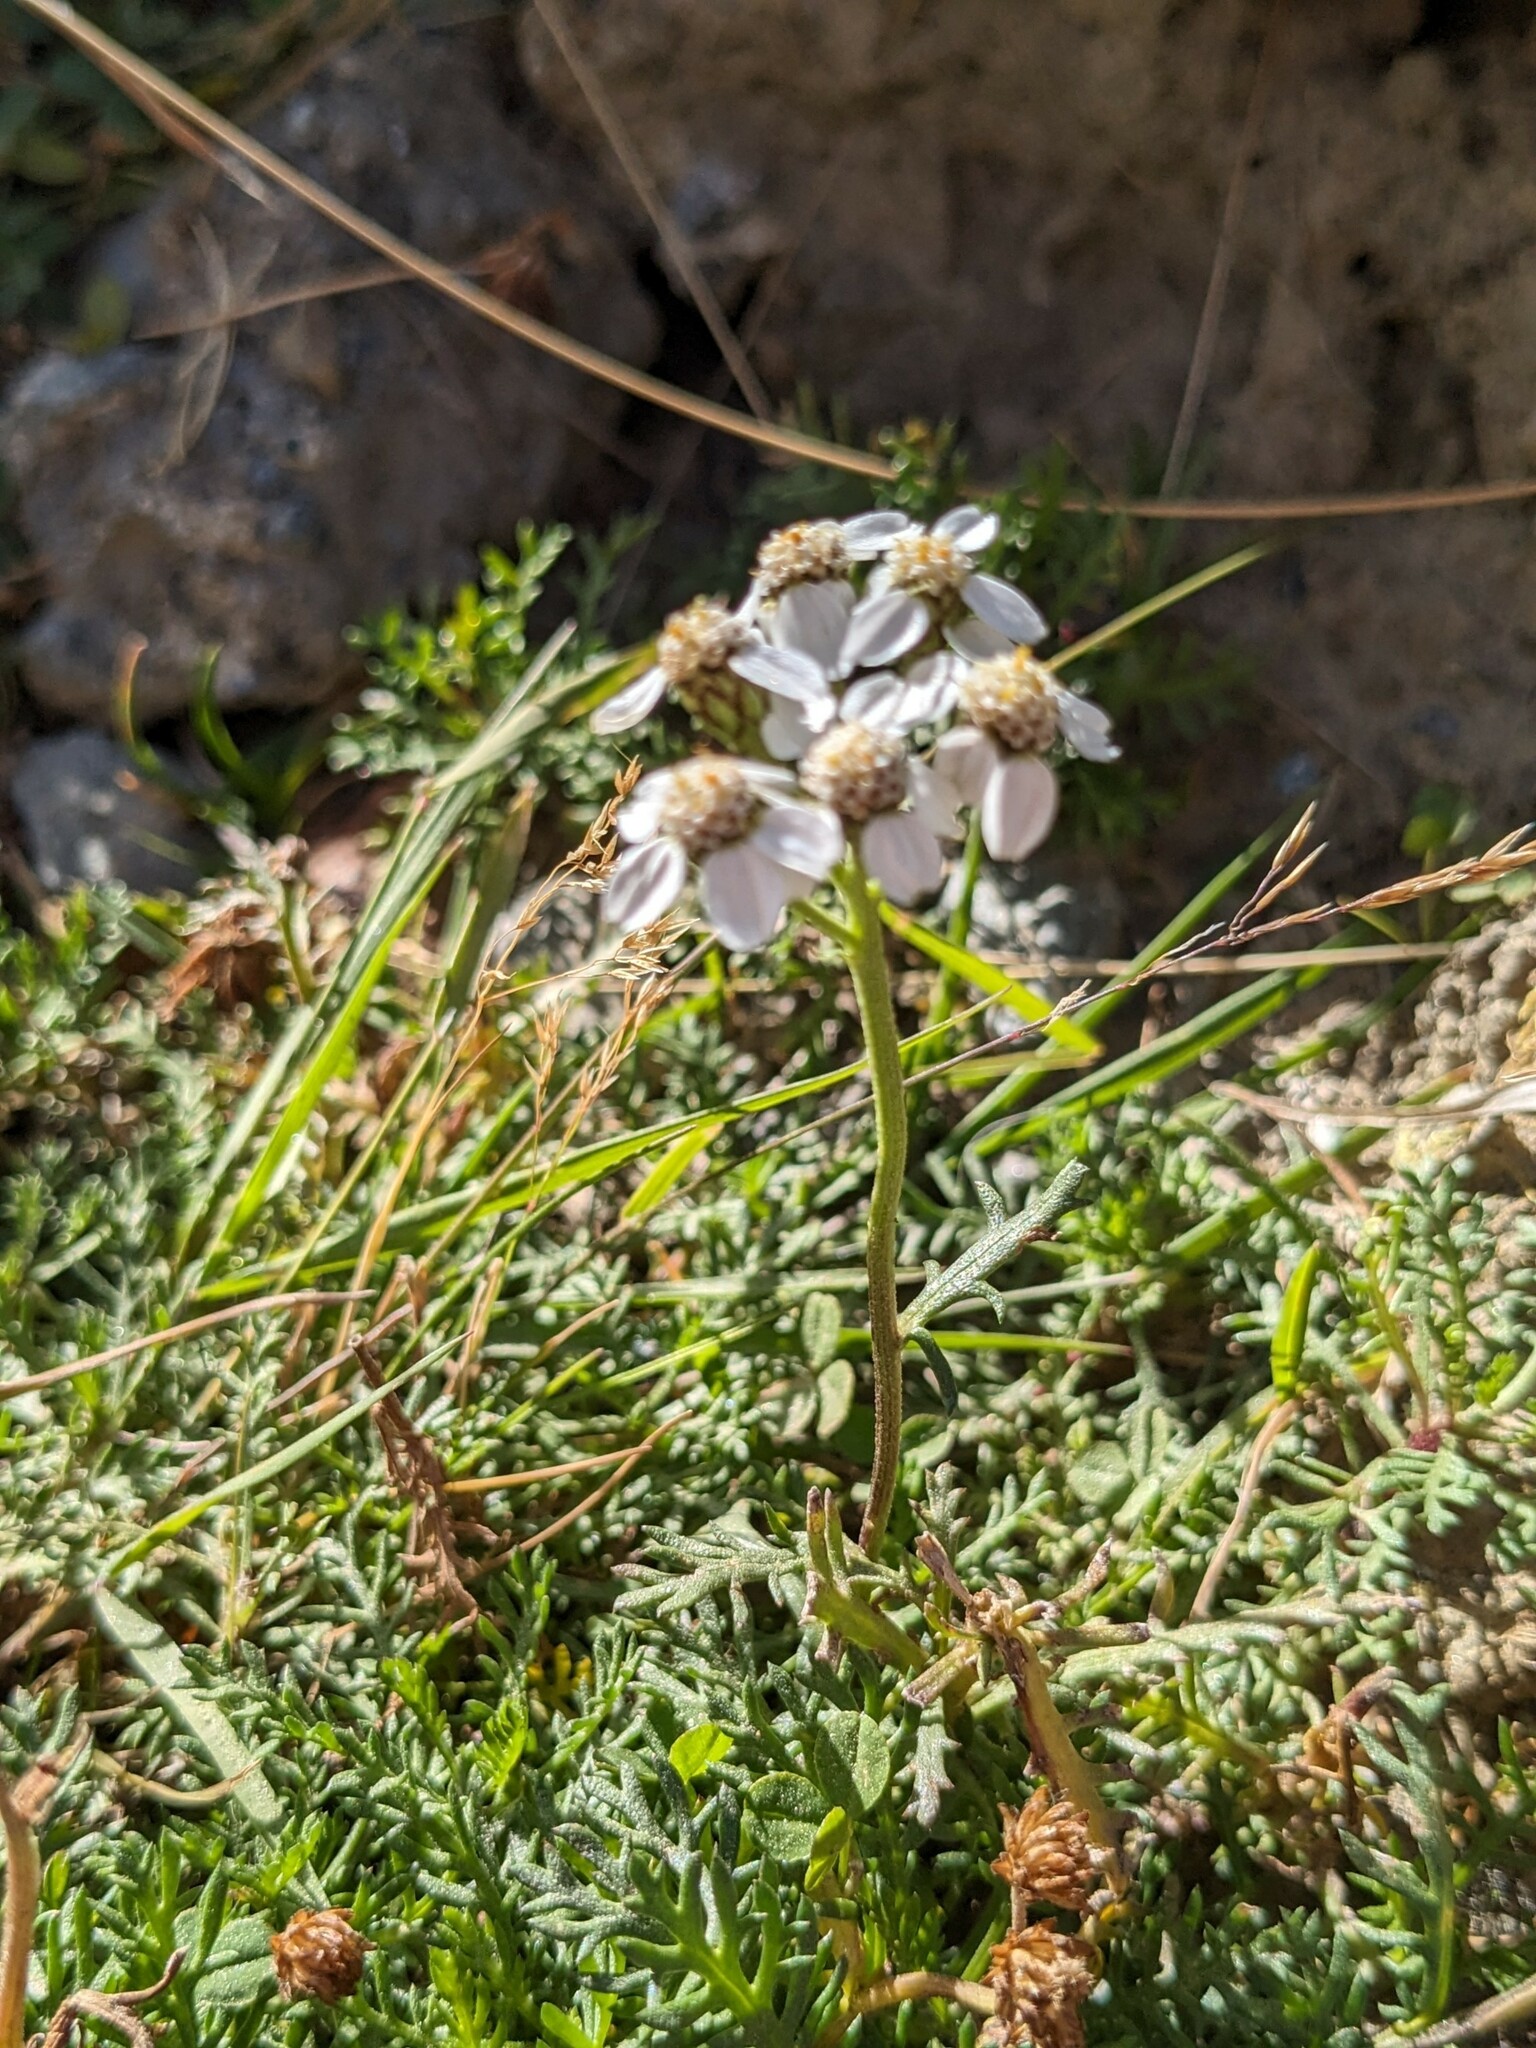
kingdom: Plantae
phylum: Tracheophyta
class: Magnoliopsida
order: Asterales
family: Asteraceae
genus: Achillea
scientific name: Achillea erba-rotta
